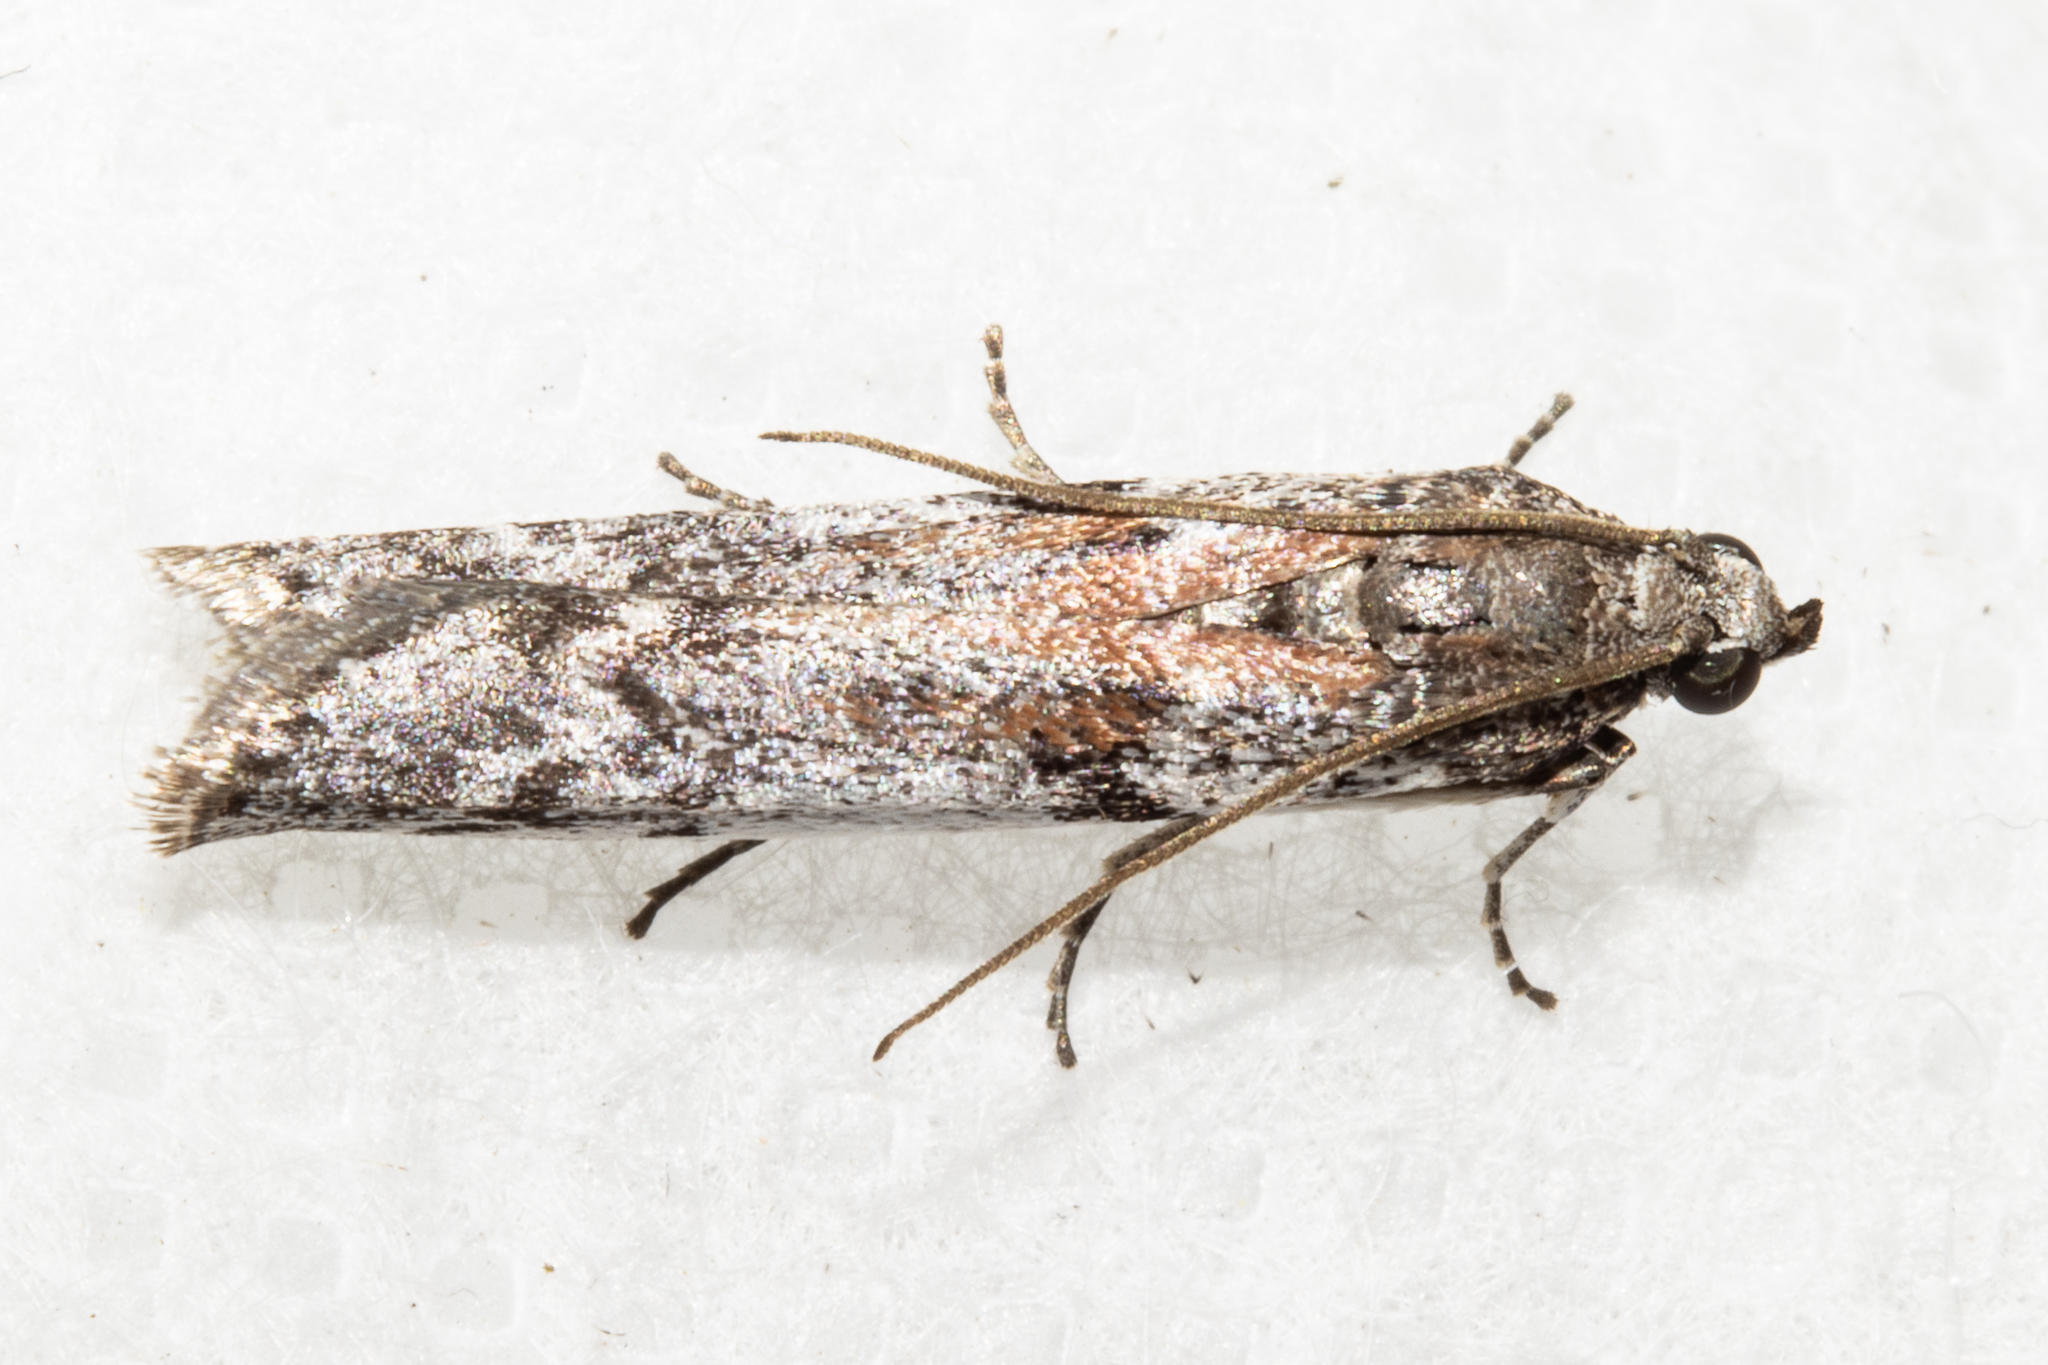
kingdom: Animalia
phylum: Arthropoda
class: Insecta
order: Lepidoptera
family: Pyralidae
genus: Patagoniodes
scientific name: Patagoniodes farinaria
